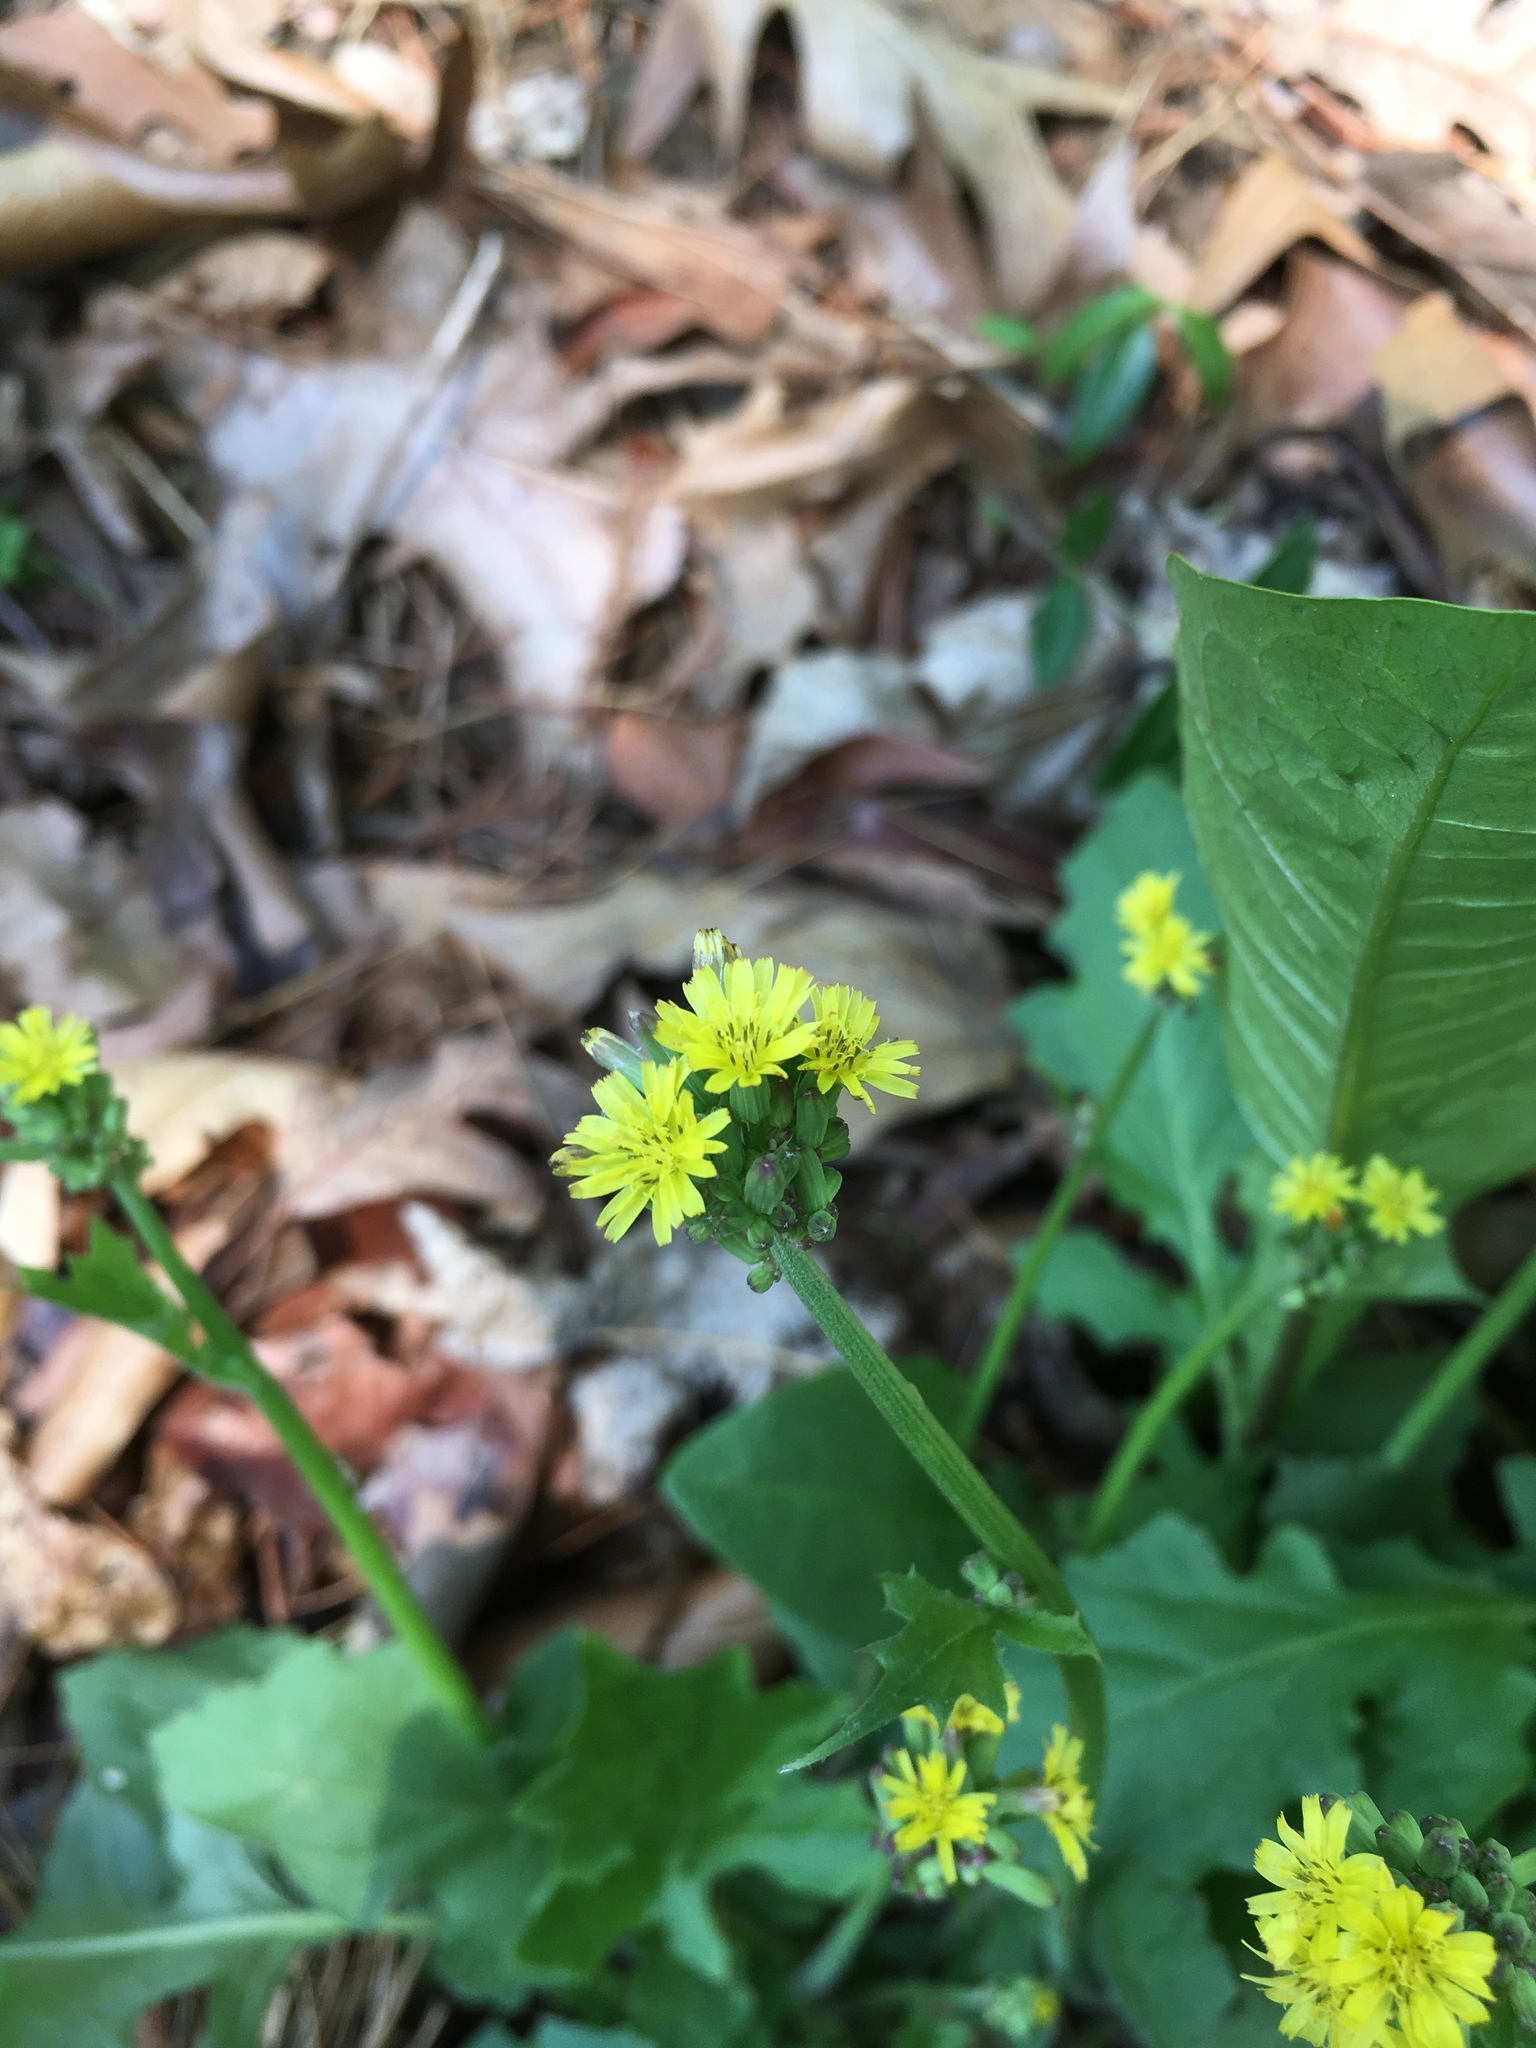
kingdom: Plantae
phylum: Tracheophyta
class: Magnoliopsida
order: Asterales
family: Asteraceae
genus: Youngia
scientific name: Youngia japonica
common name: Oriental false hawksbeard
